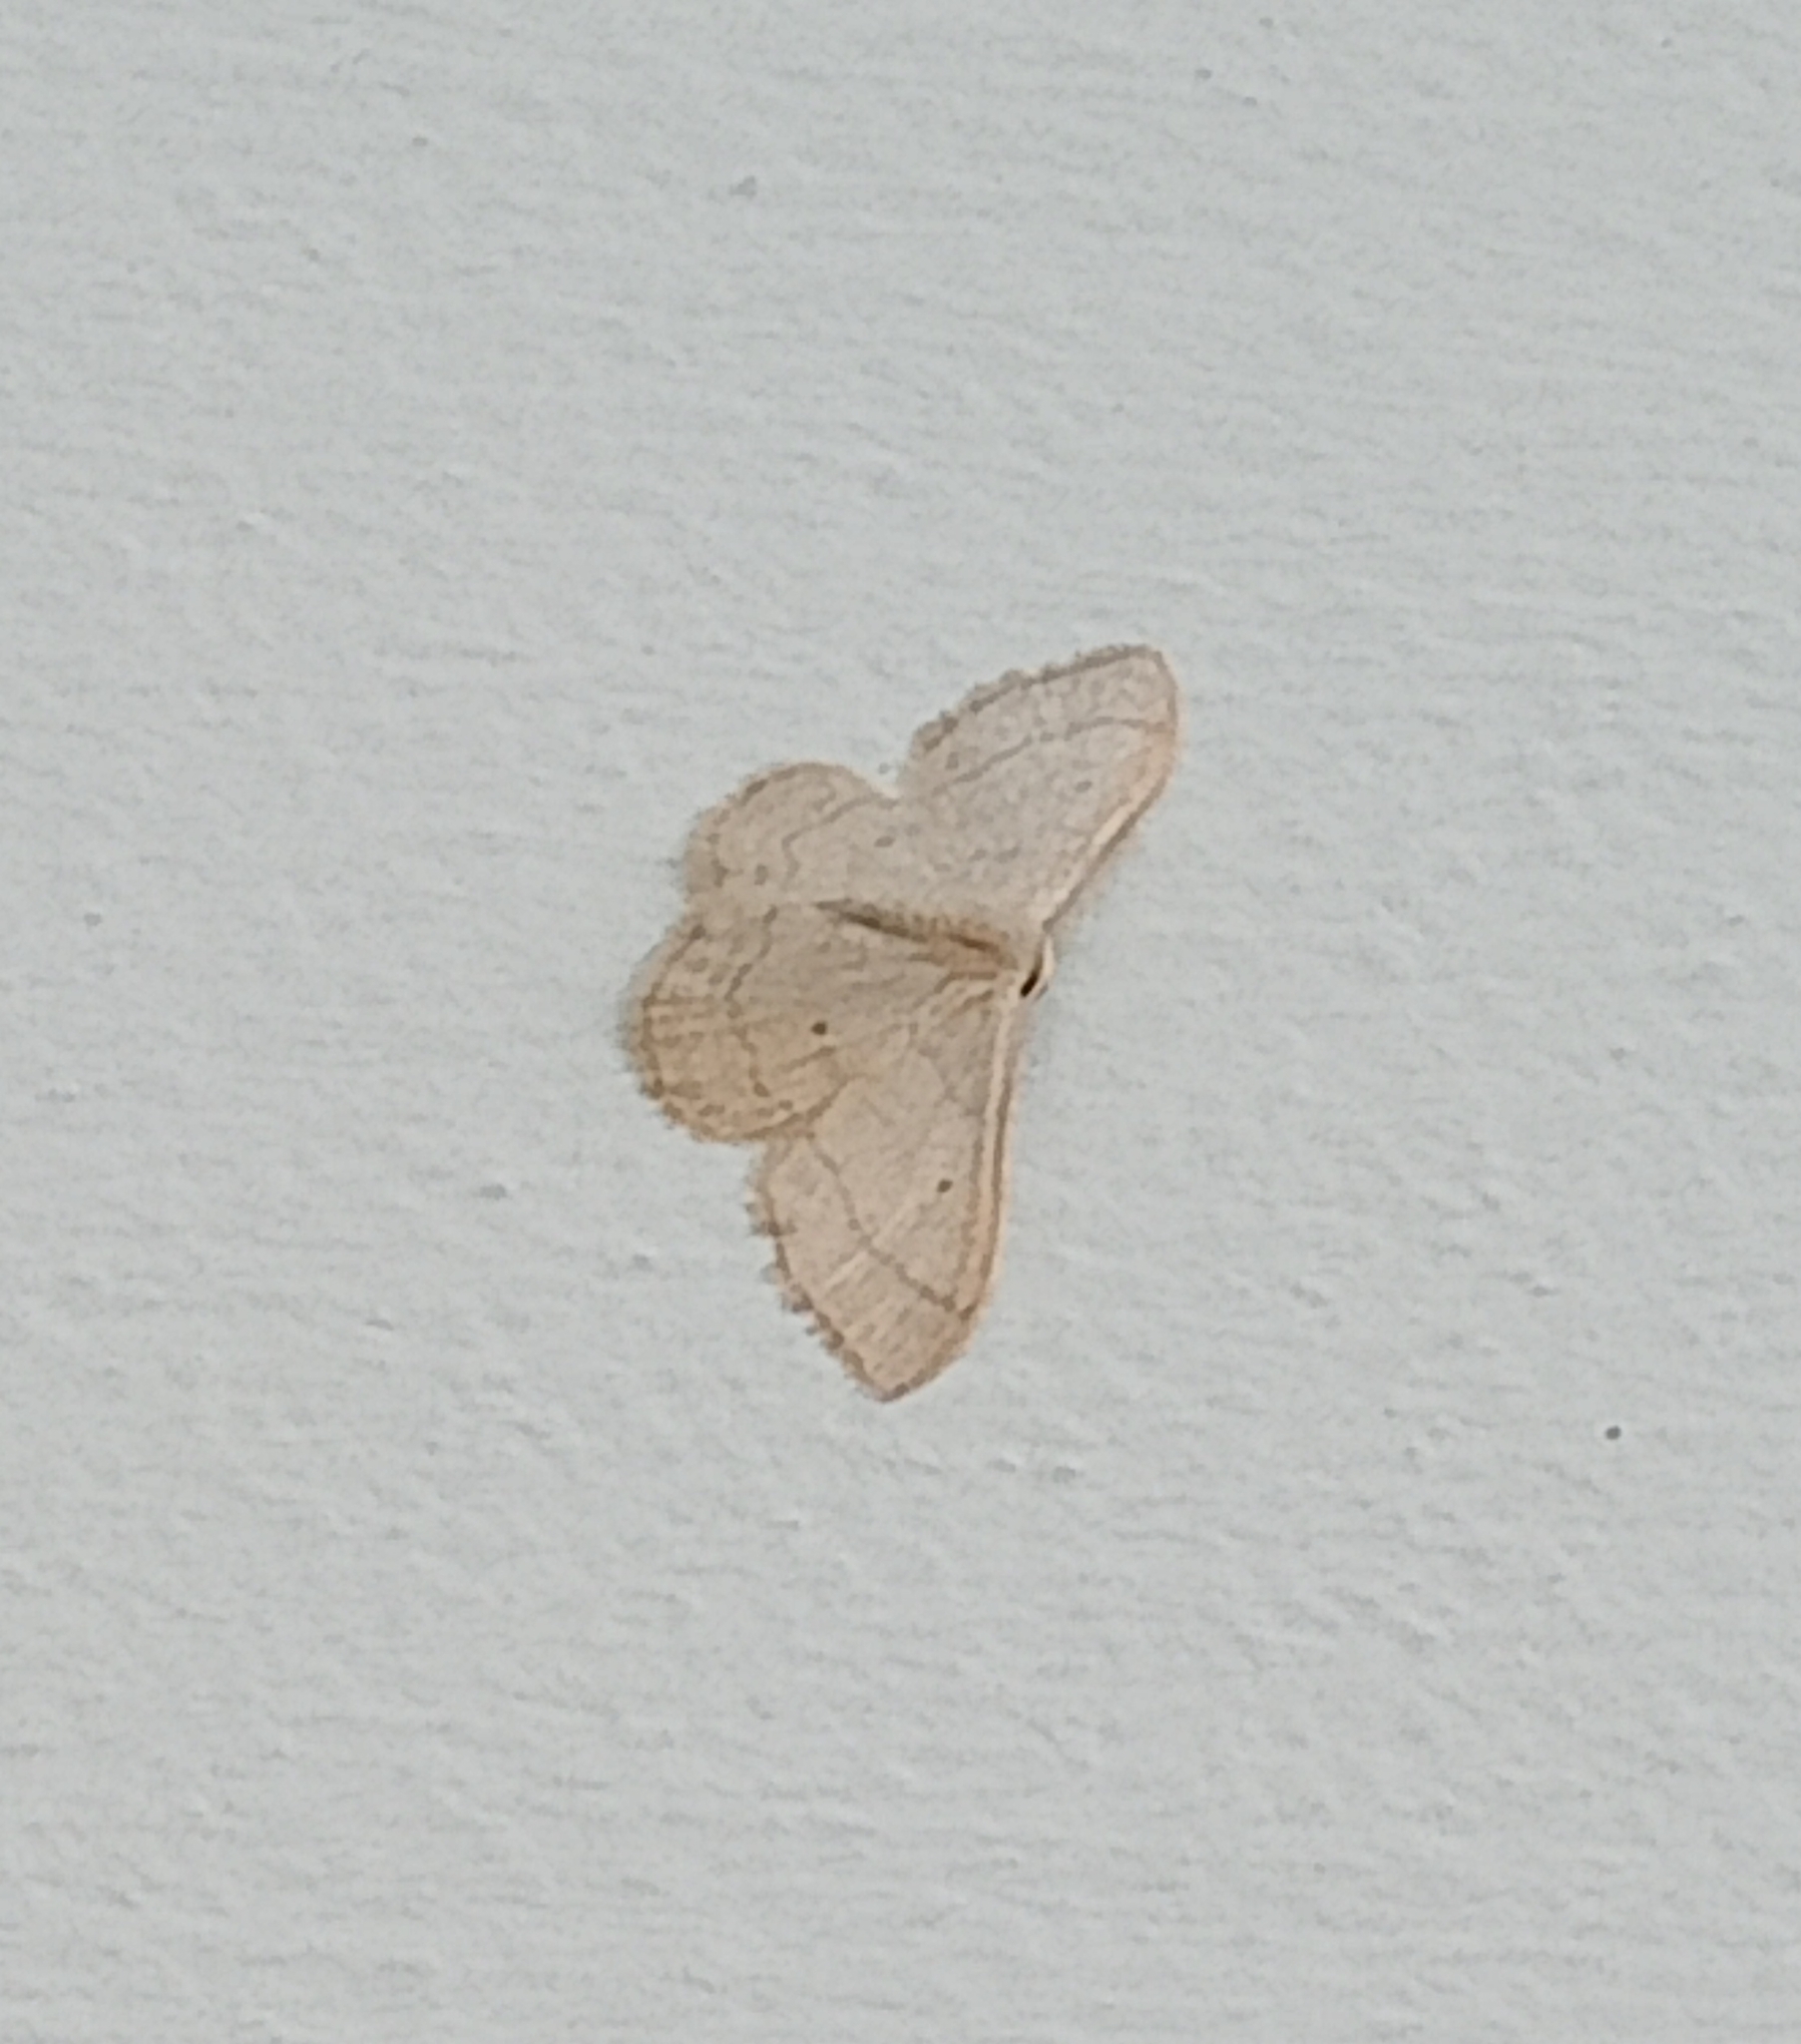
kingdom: Animalia
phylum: Arthropoda
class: Insecta
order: Lepidoptera
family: Geometridae
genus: Idaea
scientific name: Idaea straminata
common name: Plain wave
